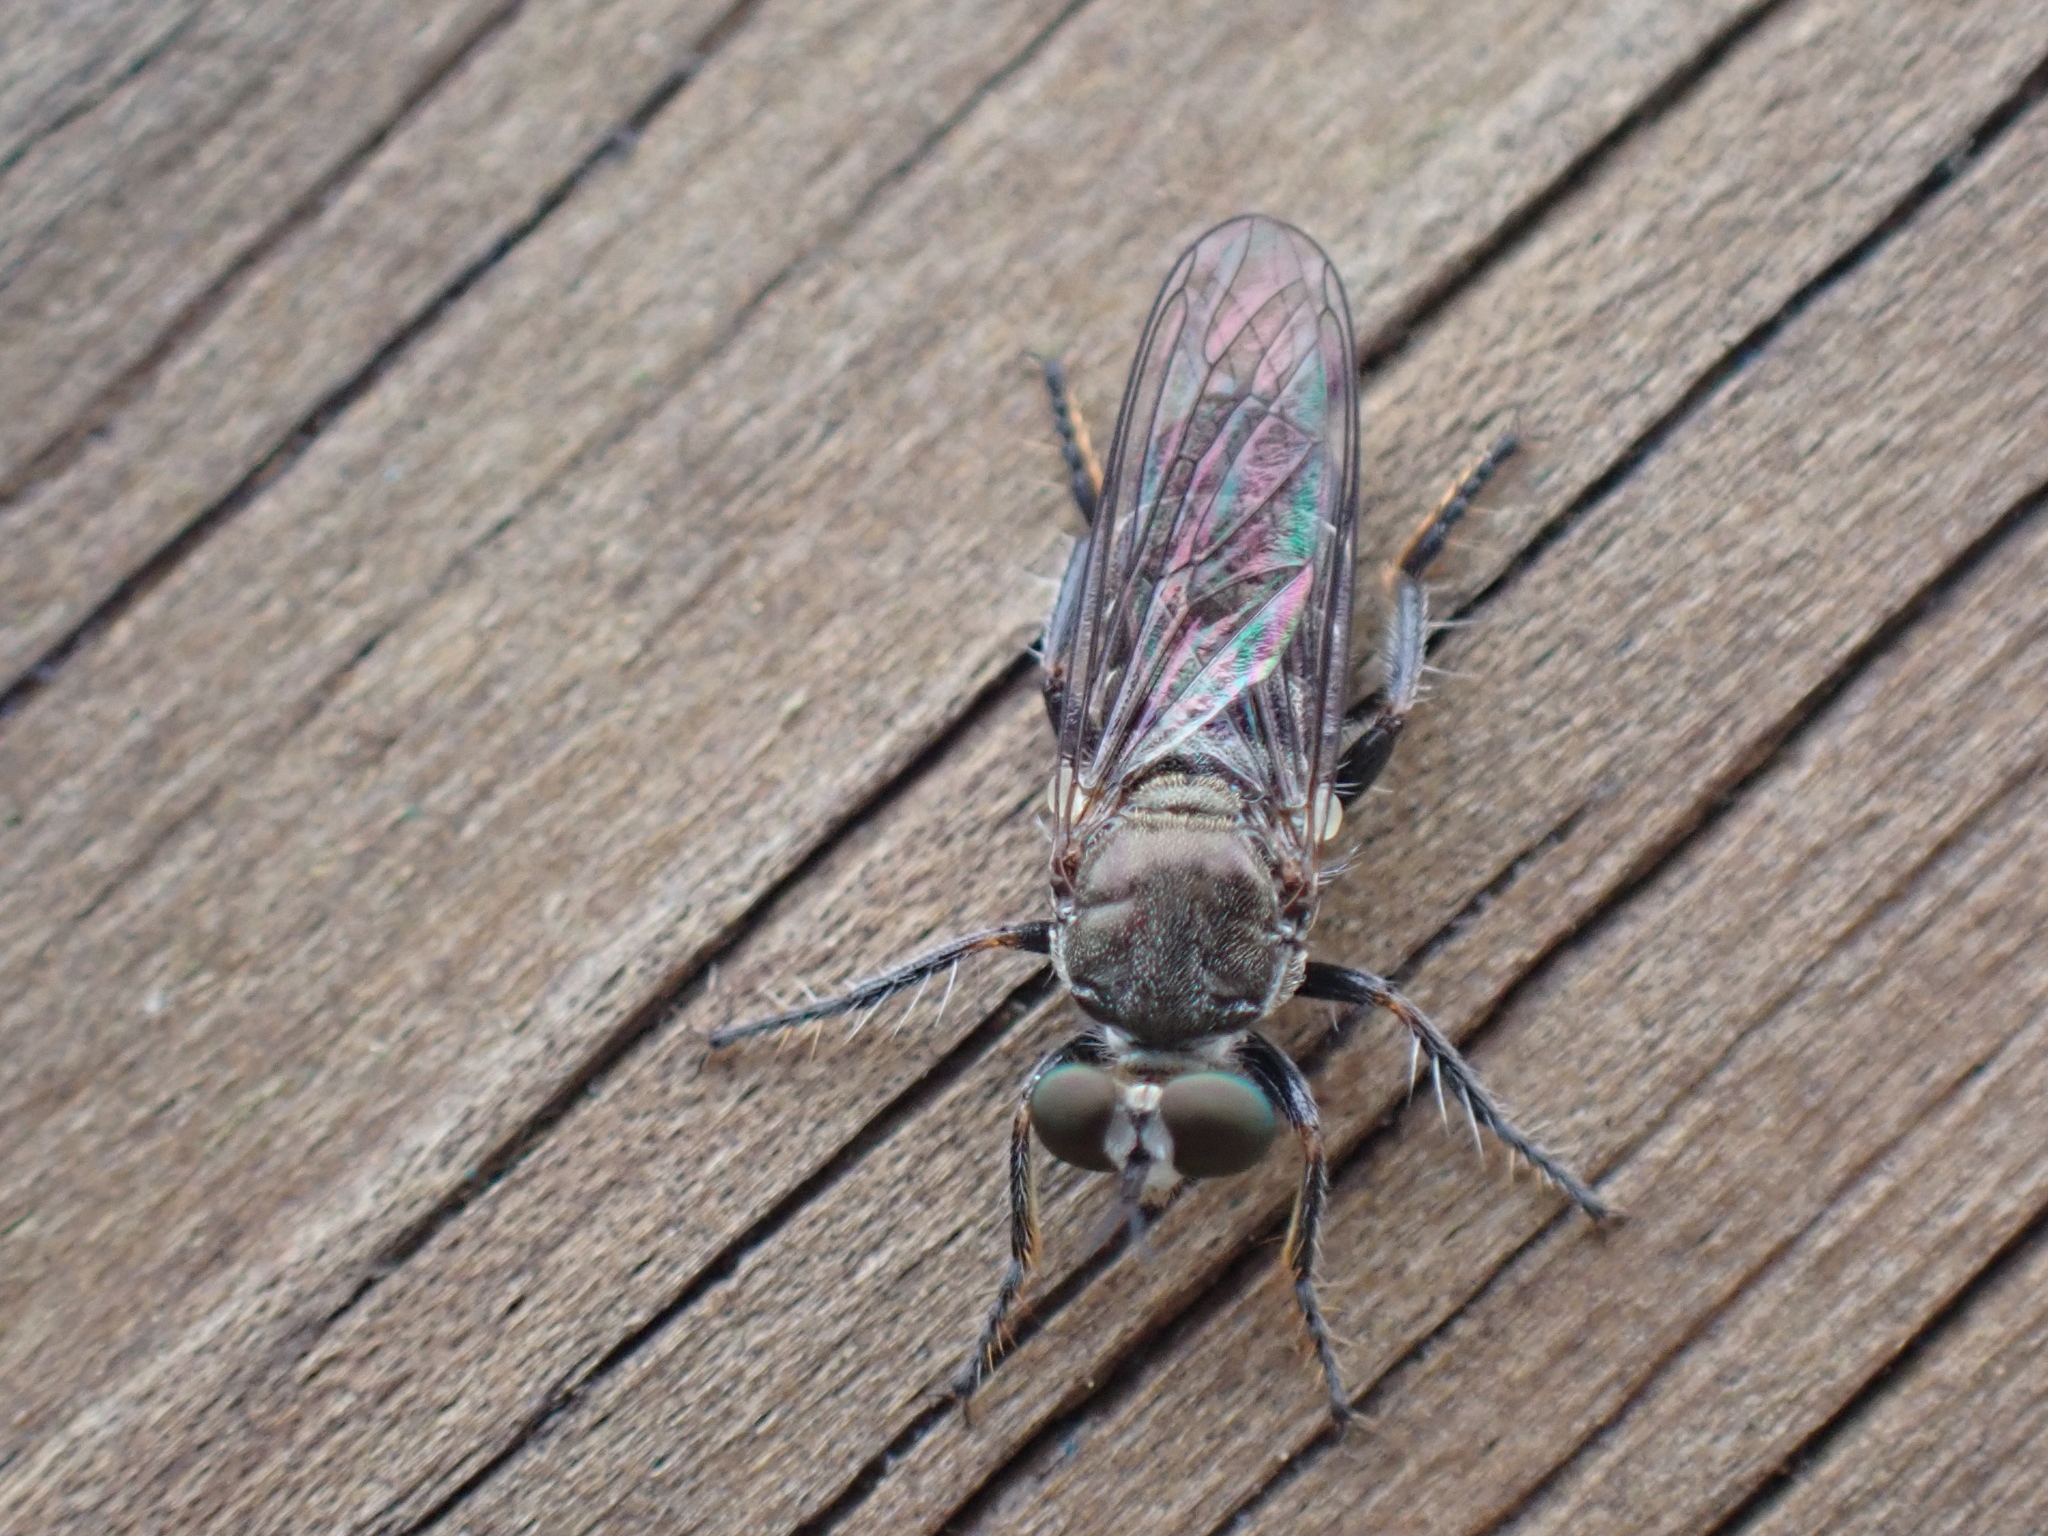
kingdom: Animalia
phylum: Arthropoda
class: Insecta
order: Diptera
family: Asilidae
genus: Atomosia
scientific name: Atomosia puella
